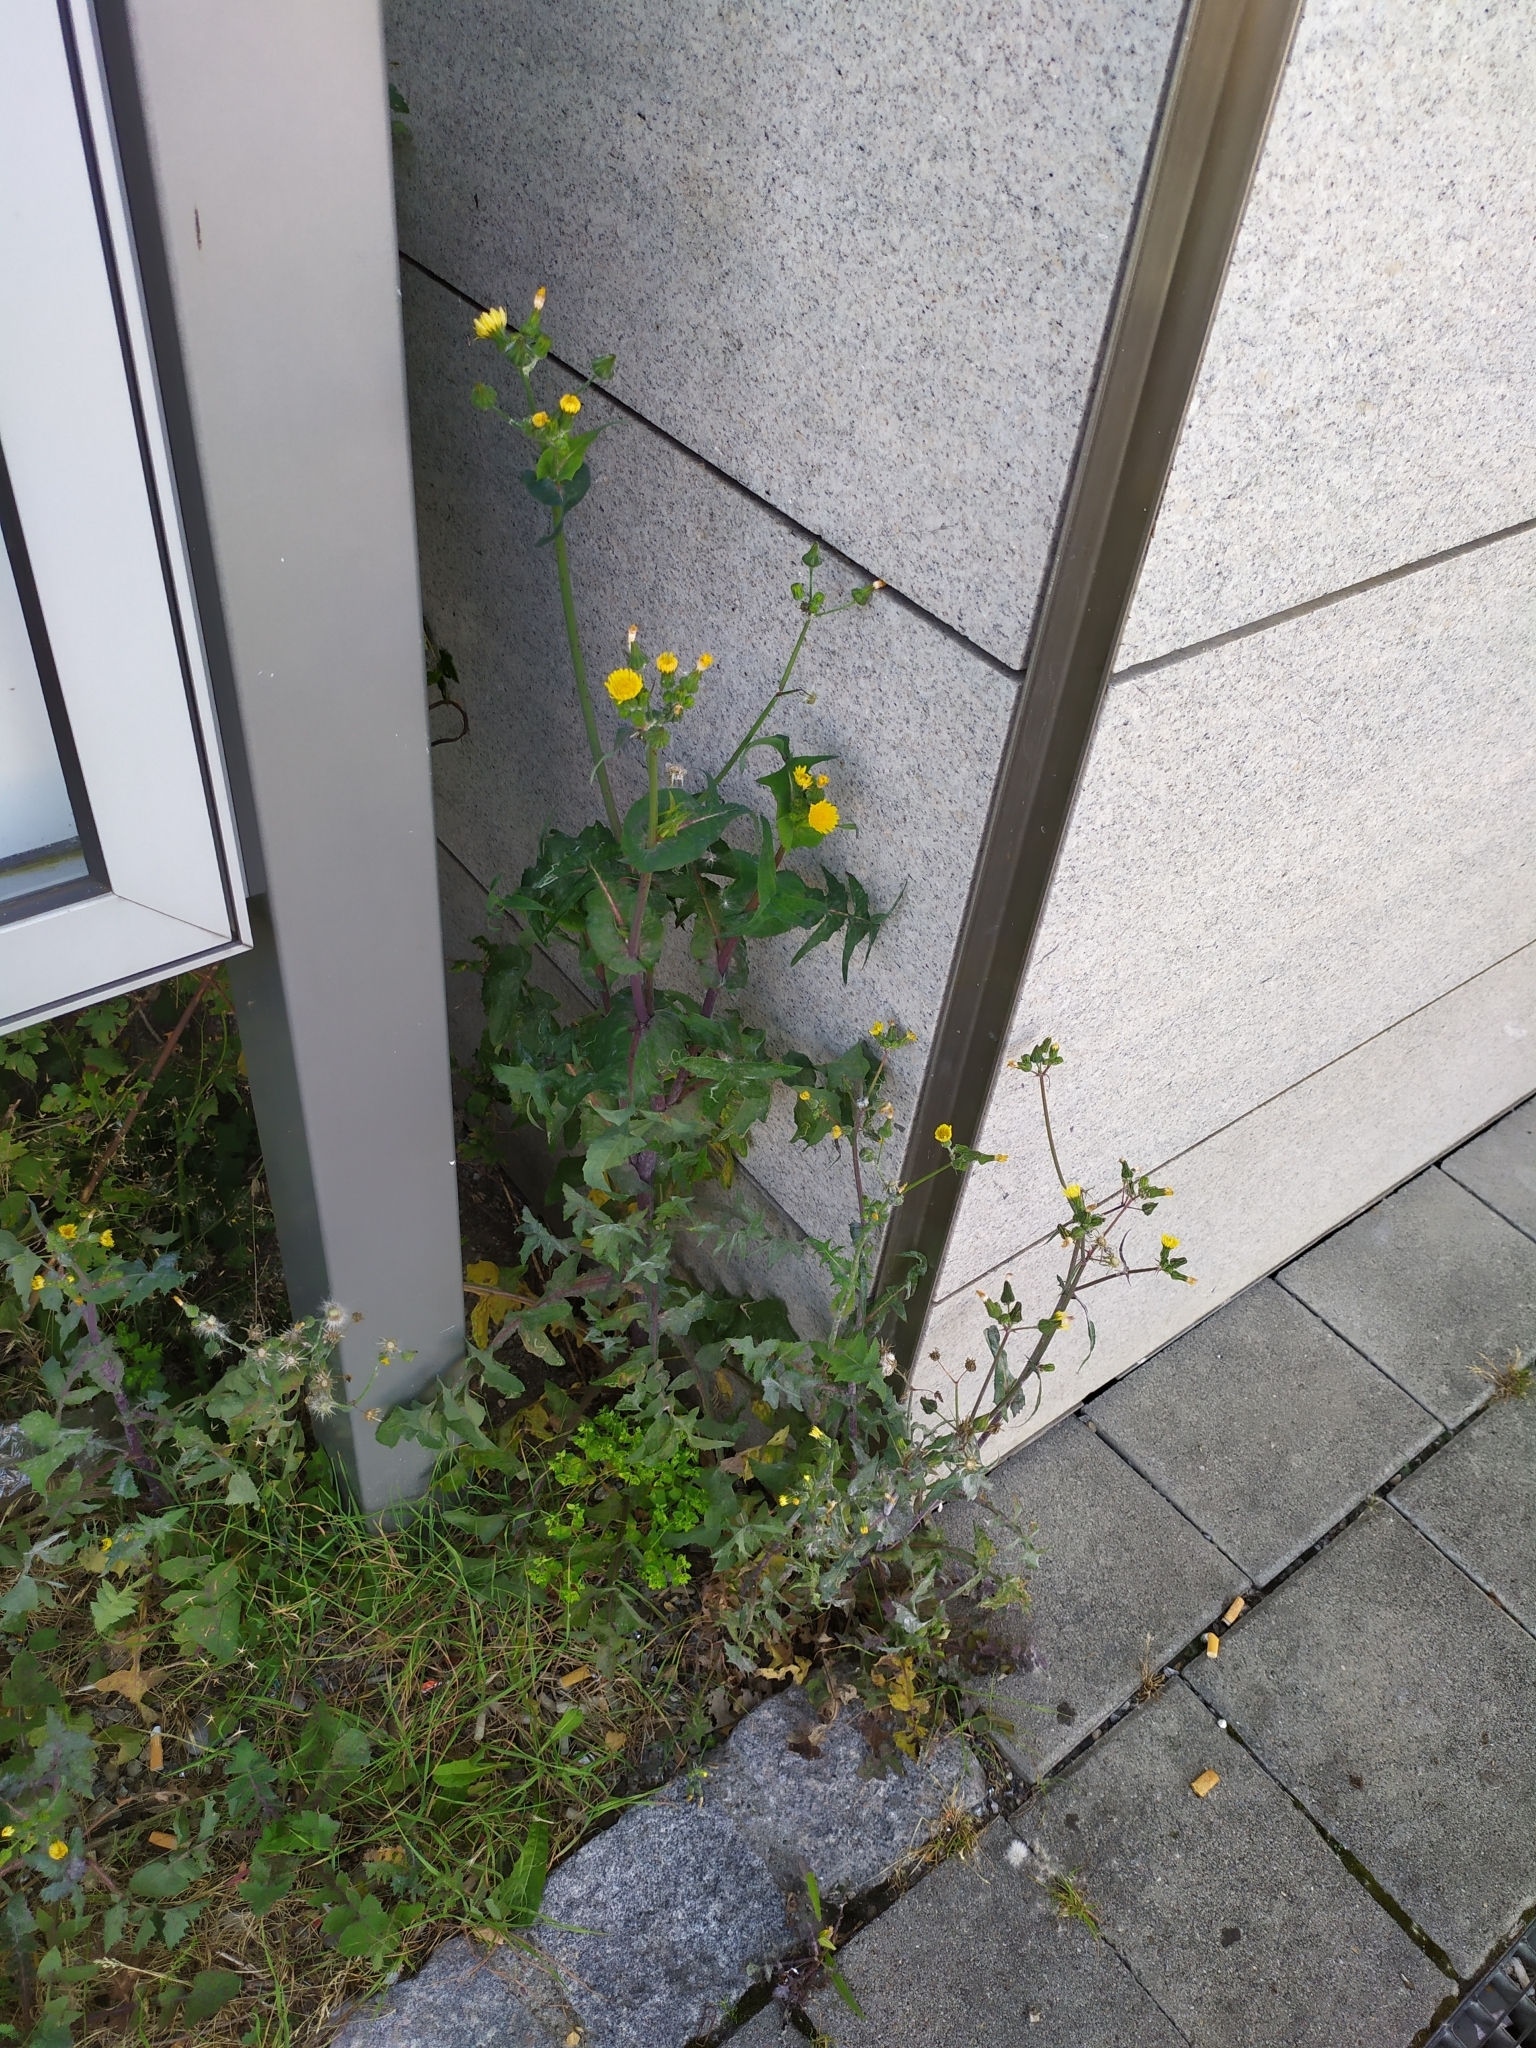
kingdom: Plantae
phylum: Tracheophyta
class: Magnoliopsida
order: Asterales
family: Asteraceae
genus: Sonchus
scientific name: Sonchus oleraceus
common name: Common sowthistle
